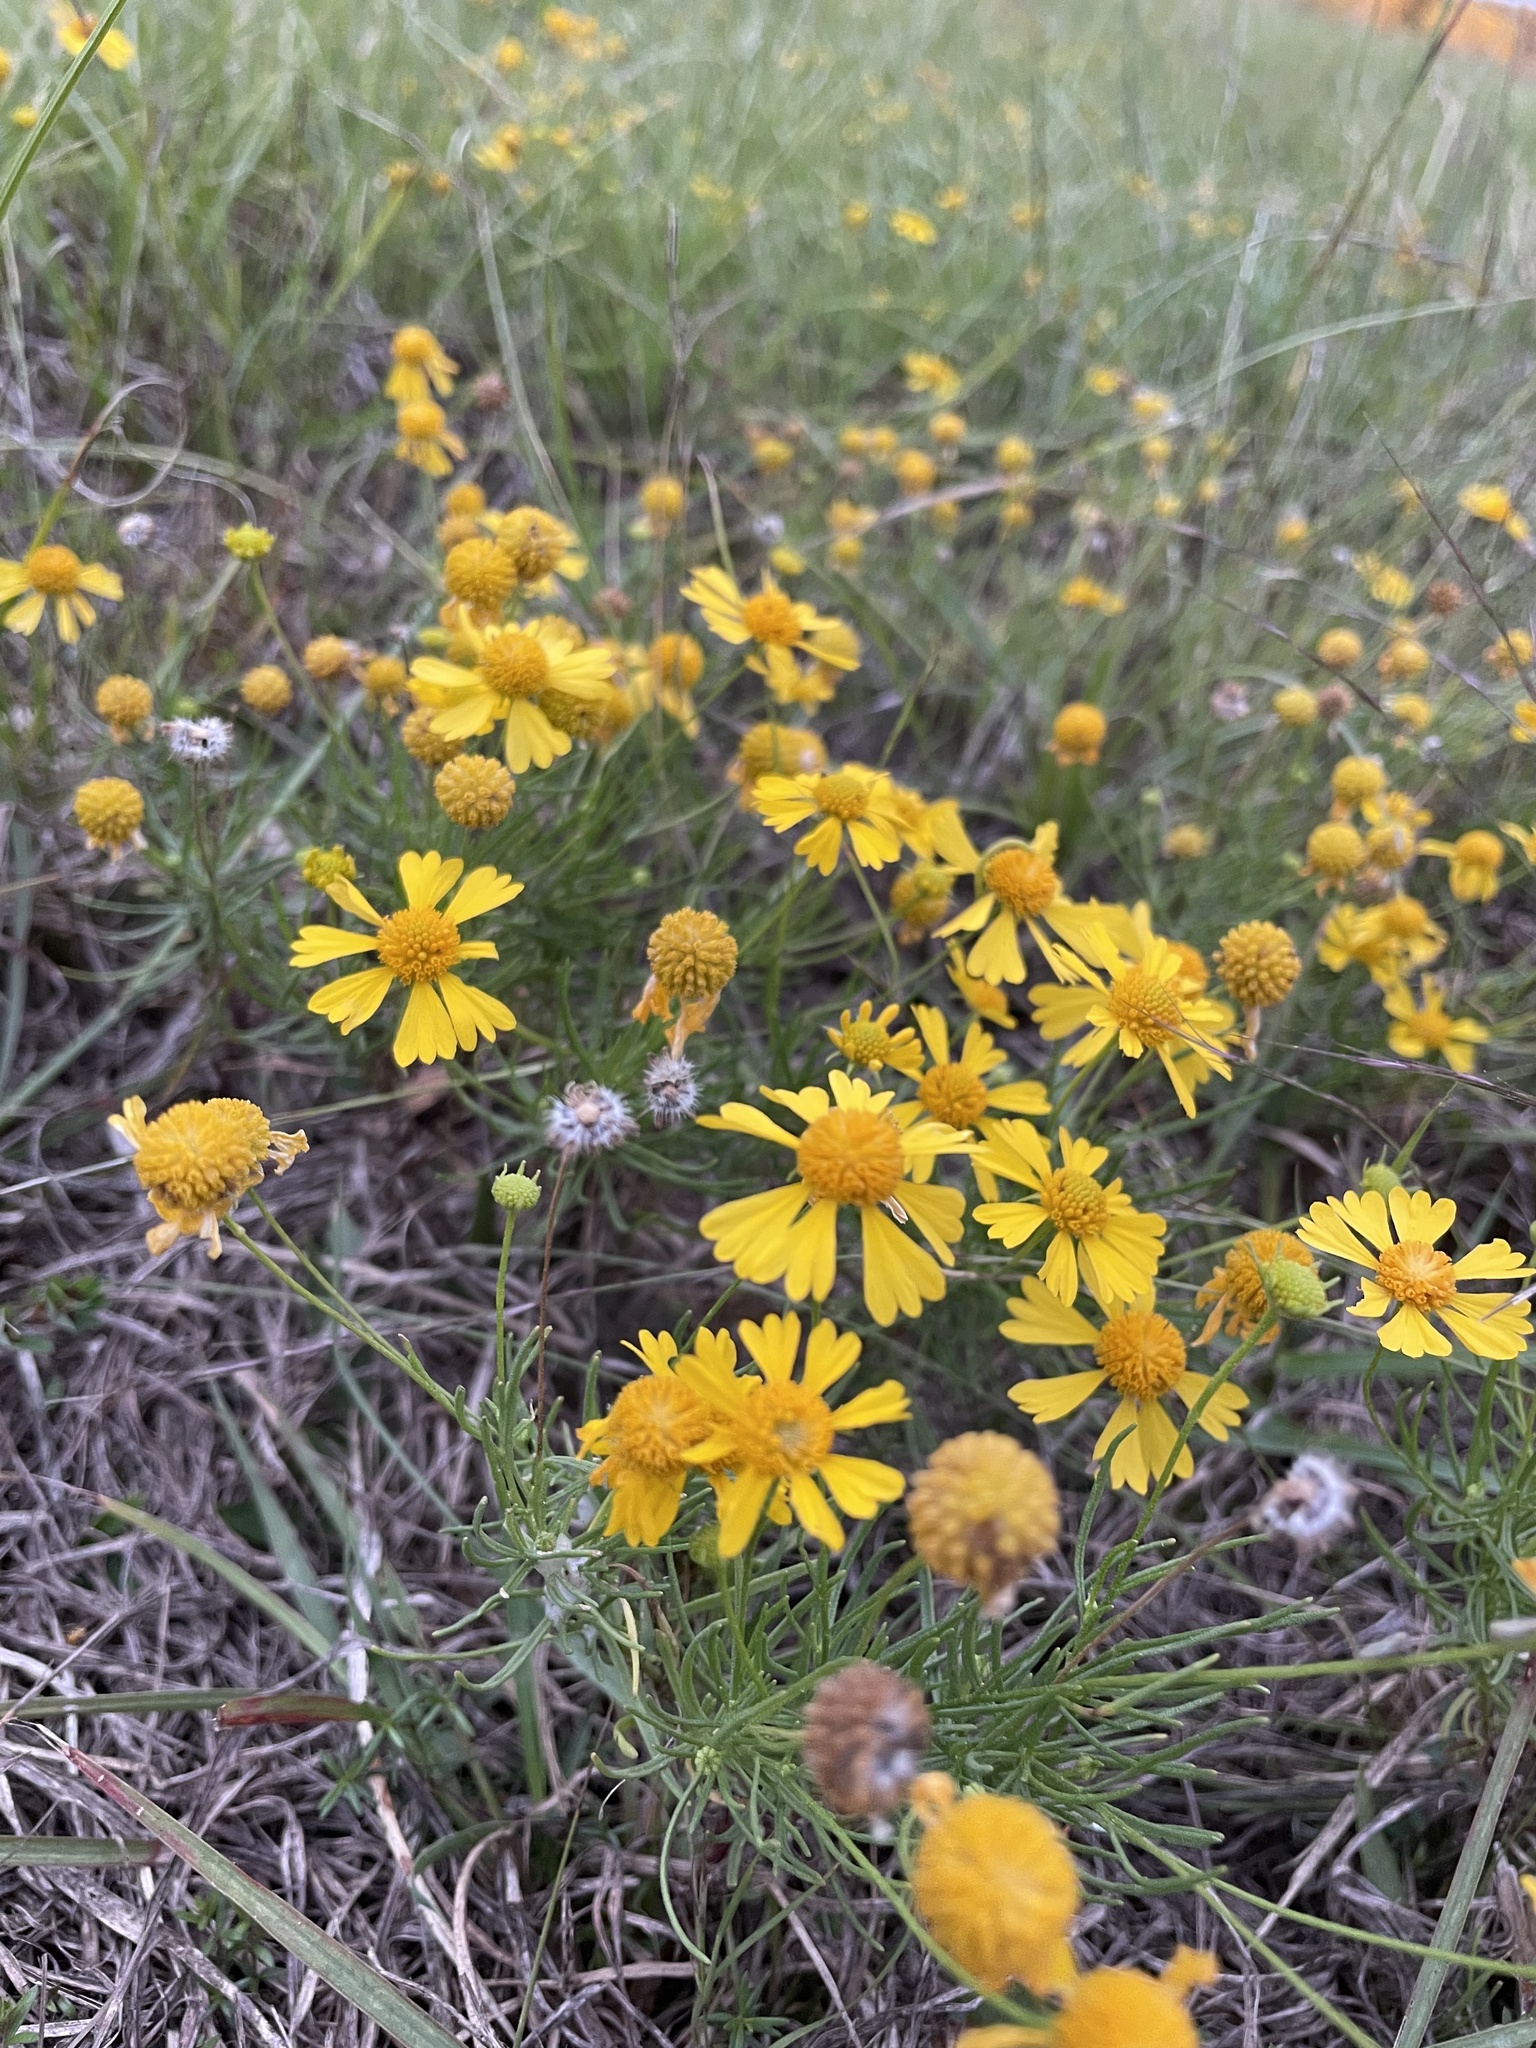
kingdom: Plantae
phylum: Tracheophyta
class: Magnoliopsida
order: Asterales
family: Asteraceae
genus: Helenium
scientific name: Helenium amarum
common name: Bitter sneezeweed
